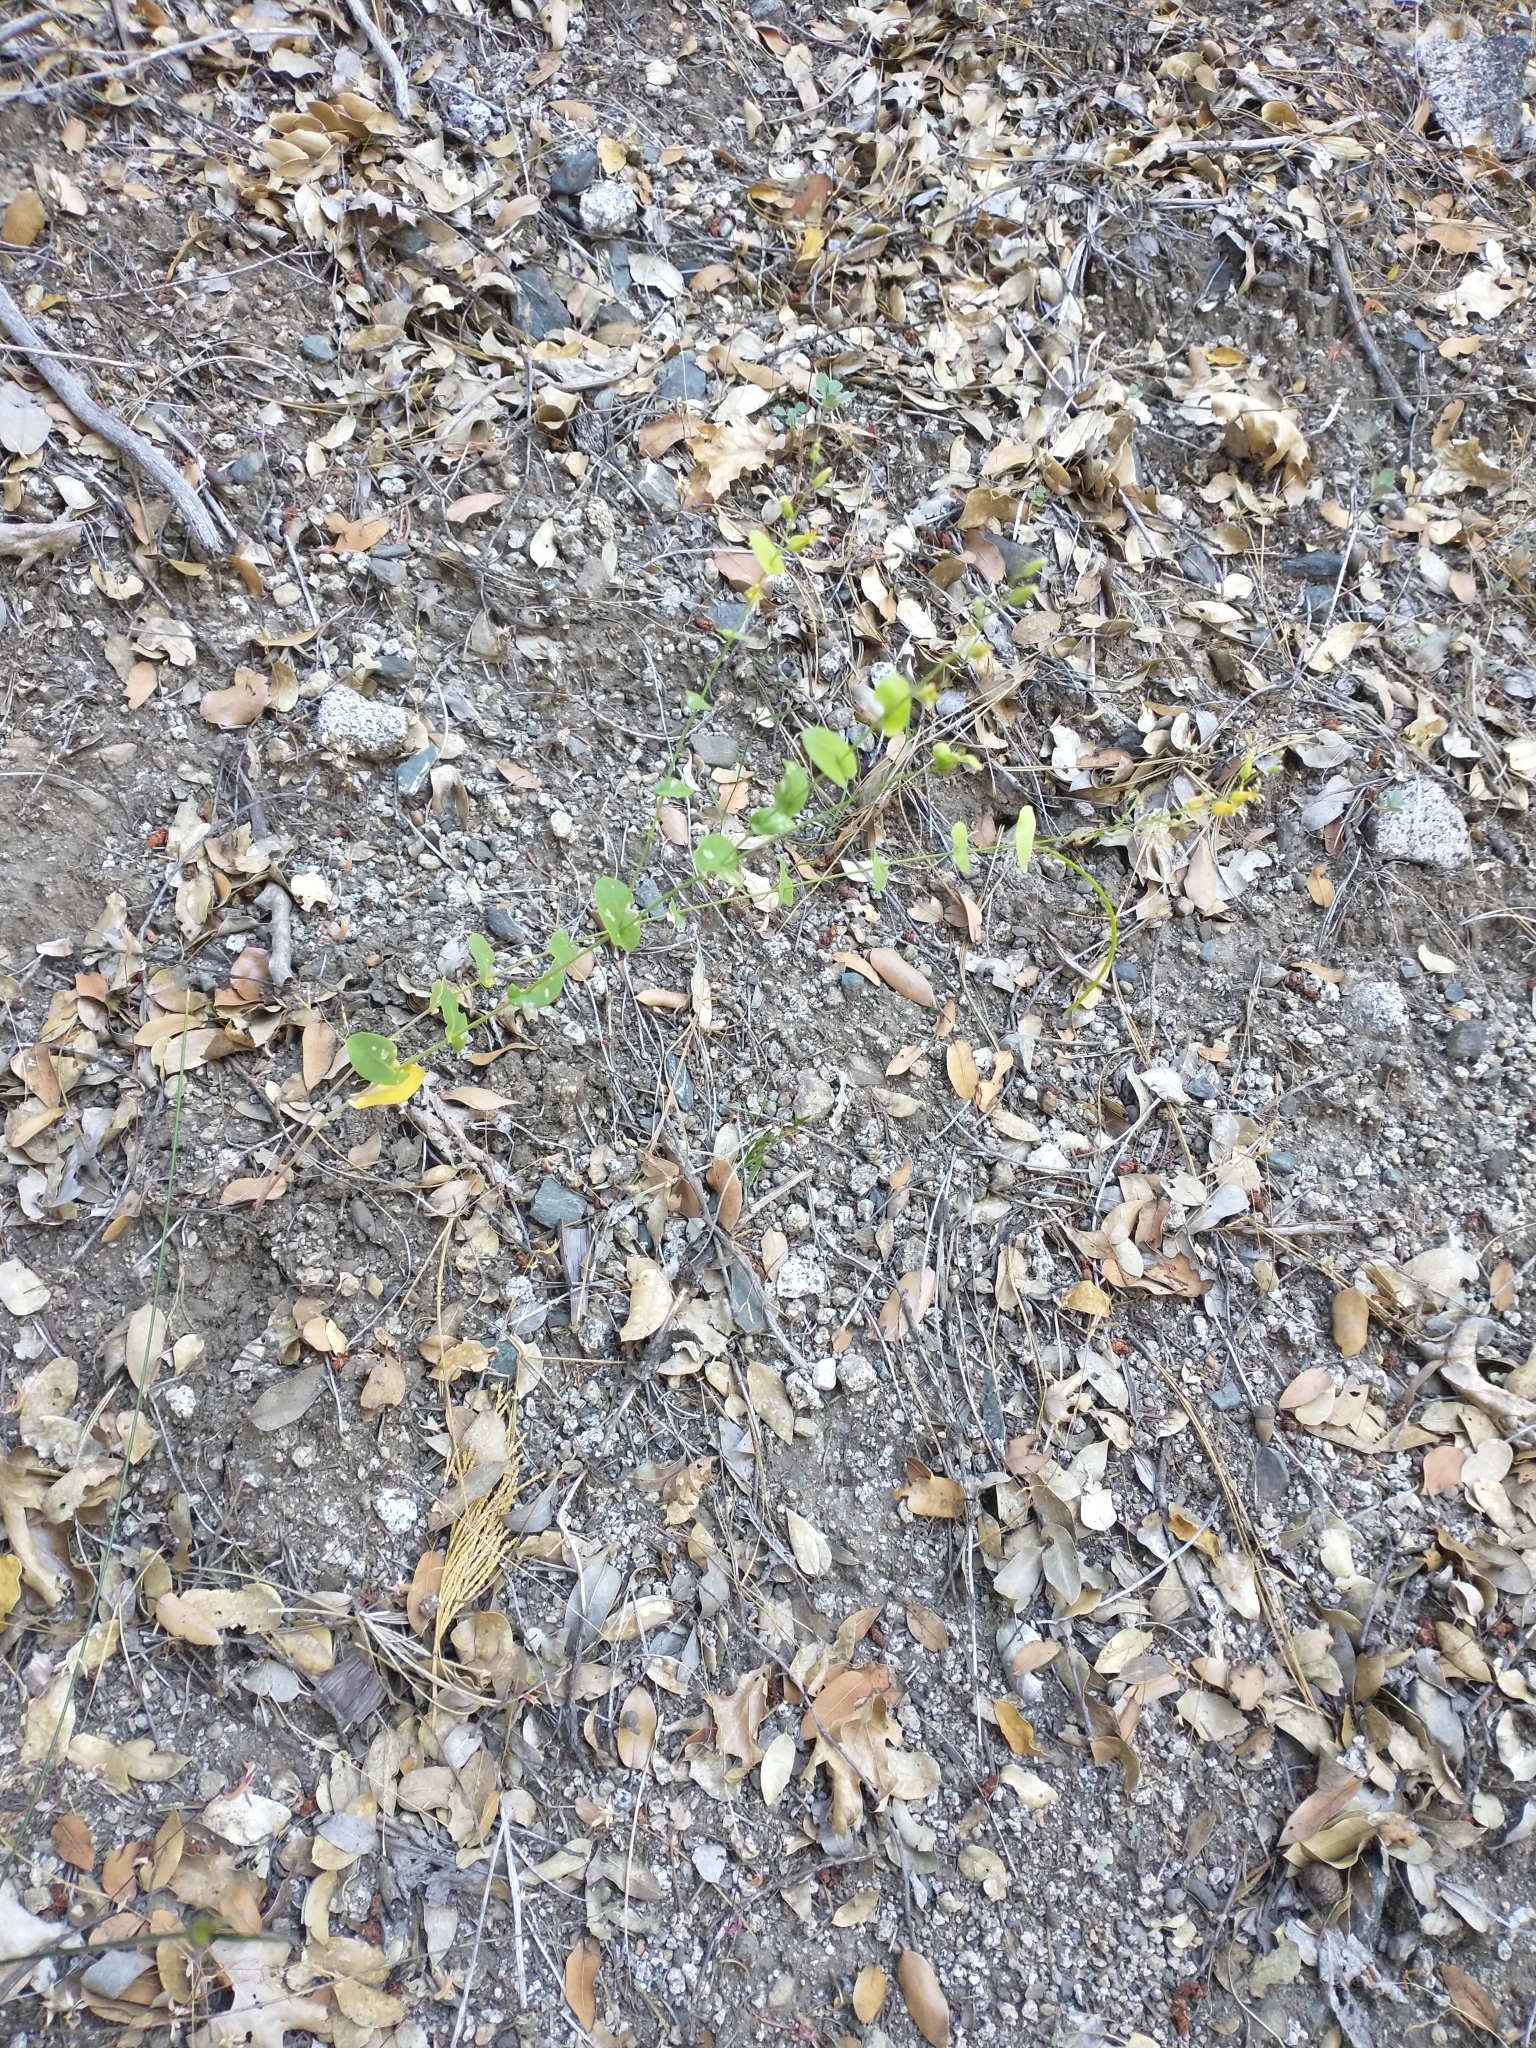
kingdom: Plantae
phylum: Tracheophyta
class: Magnoliopsida
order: Brassicales
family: Brassicaceae
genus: Streptanthus
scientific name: Streptanthus tortuosus
